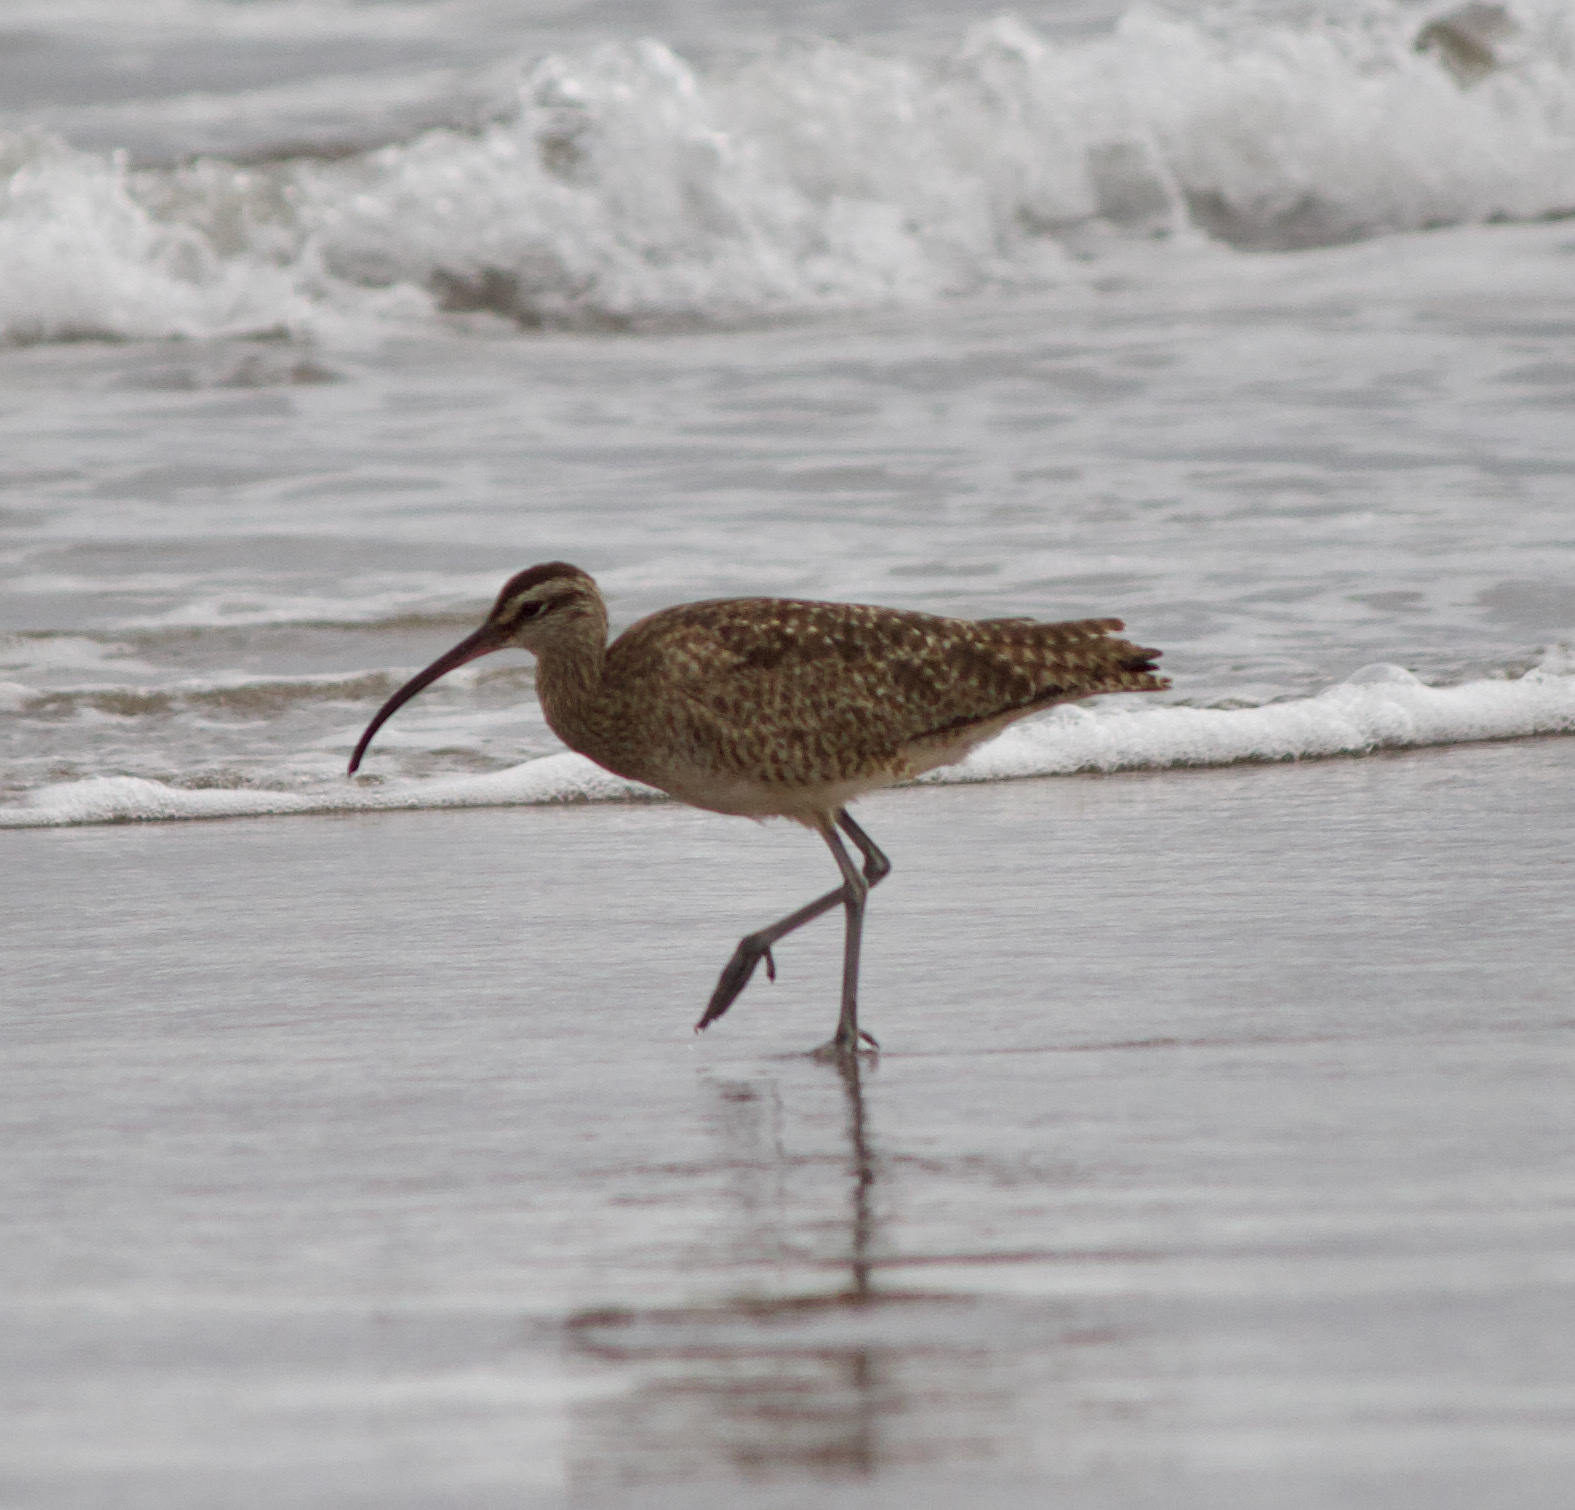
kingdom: Animalia
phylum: Chordata
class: Aves
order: Charadriiformes
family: Scolopacidae
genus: Numenius
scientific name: Numenius phaeopus
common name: Whimbrel
